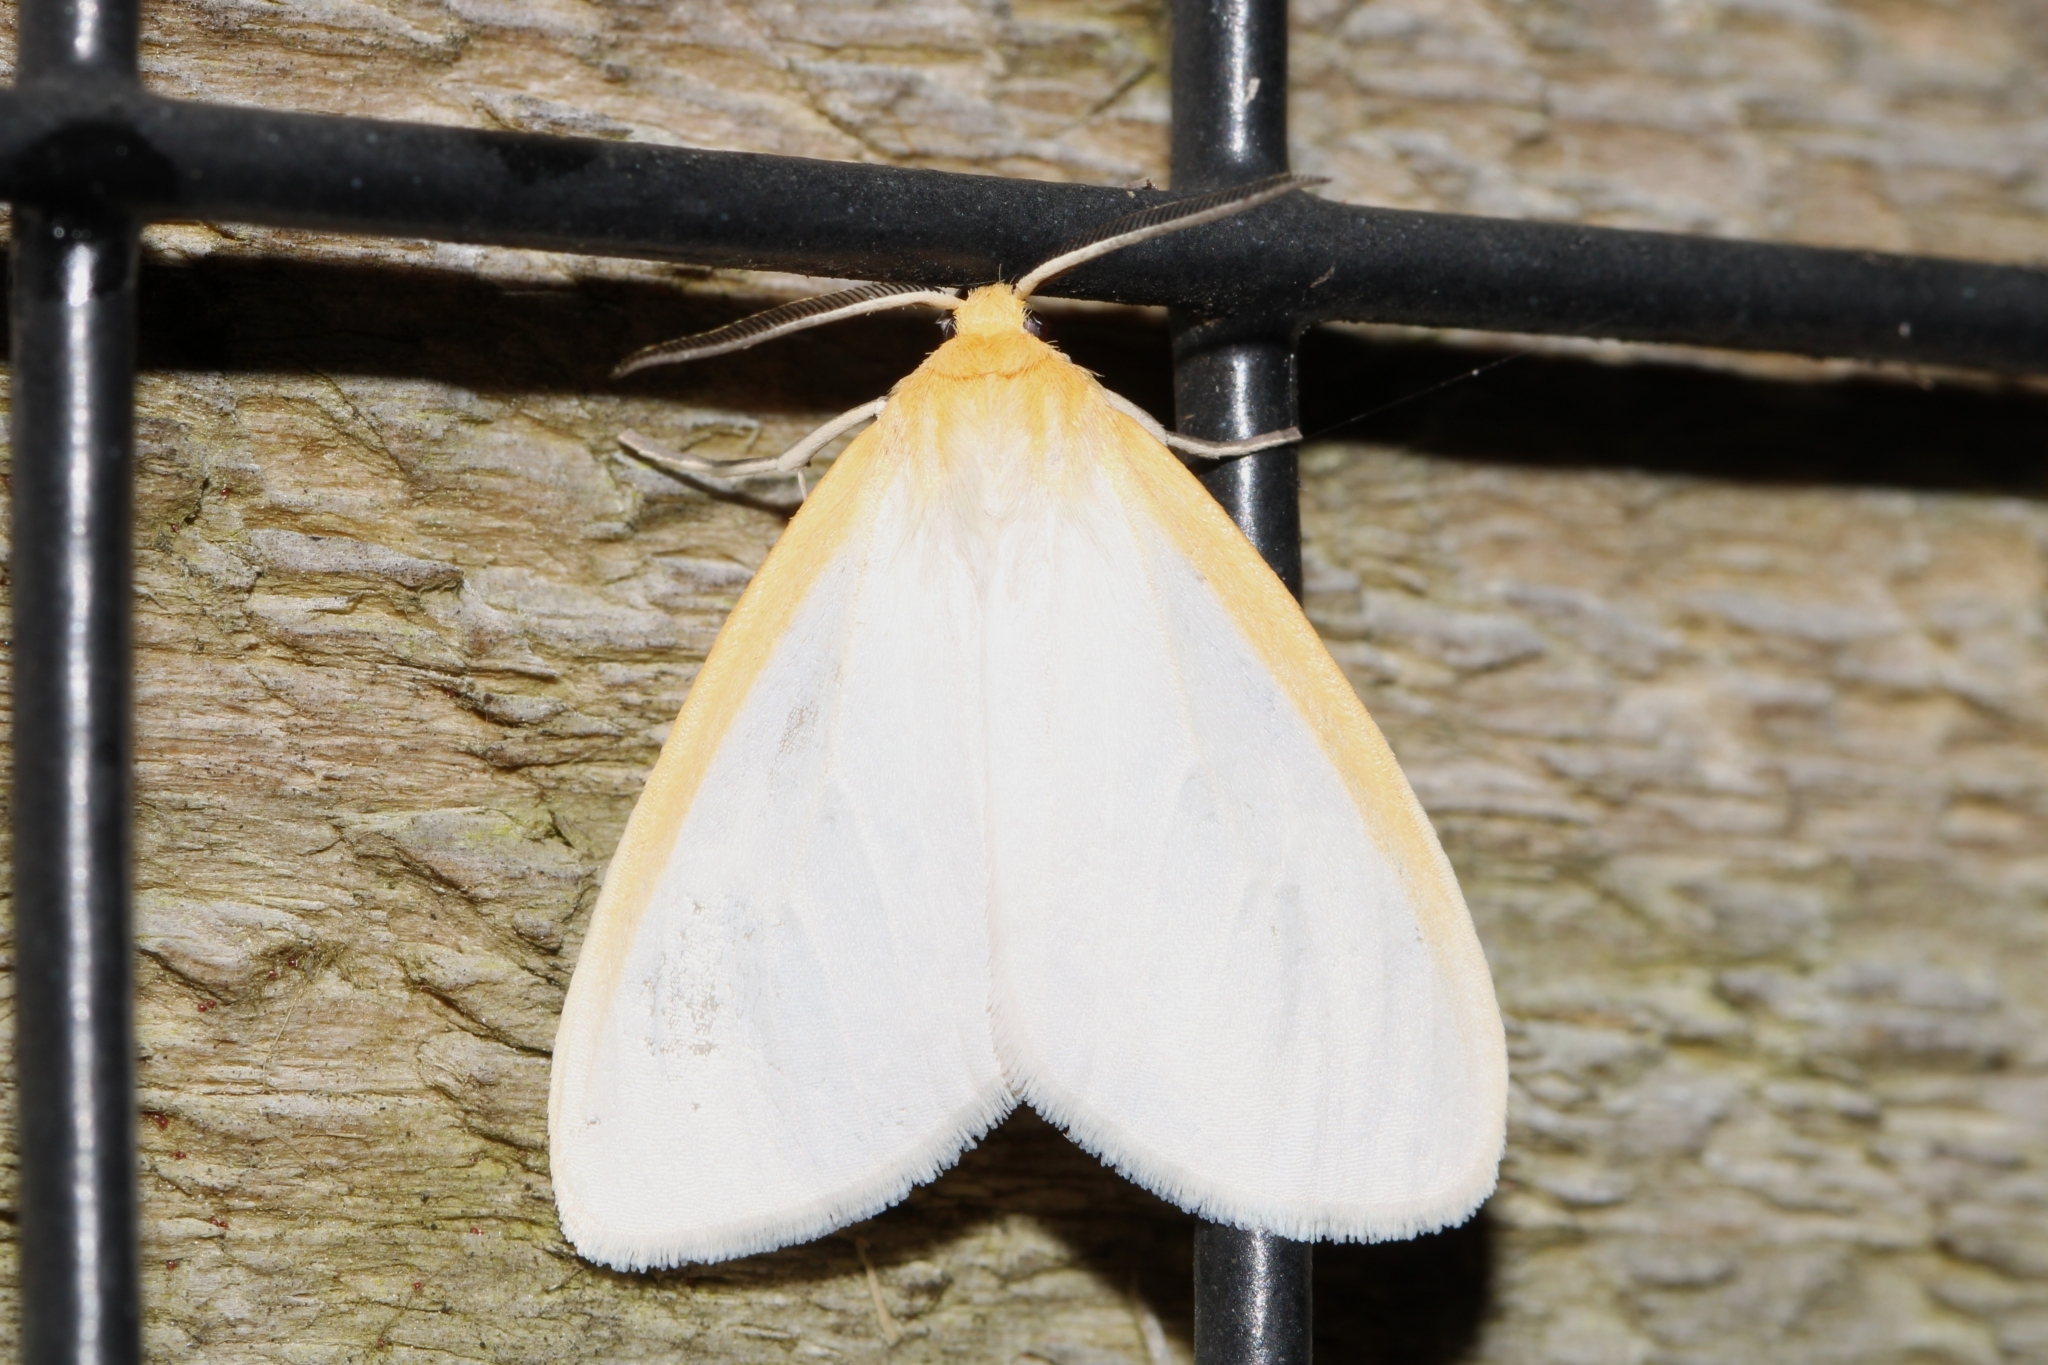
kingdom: Animalia
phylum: Arthropoda
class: Insecta
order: Lepidoptera
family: Erebidae
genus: Cycnia
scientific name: Cycnia tenera
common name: Delicate cycnia moth
